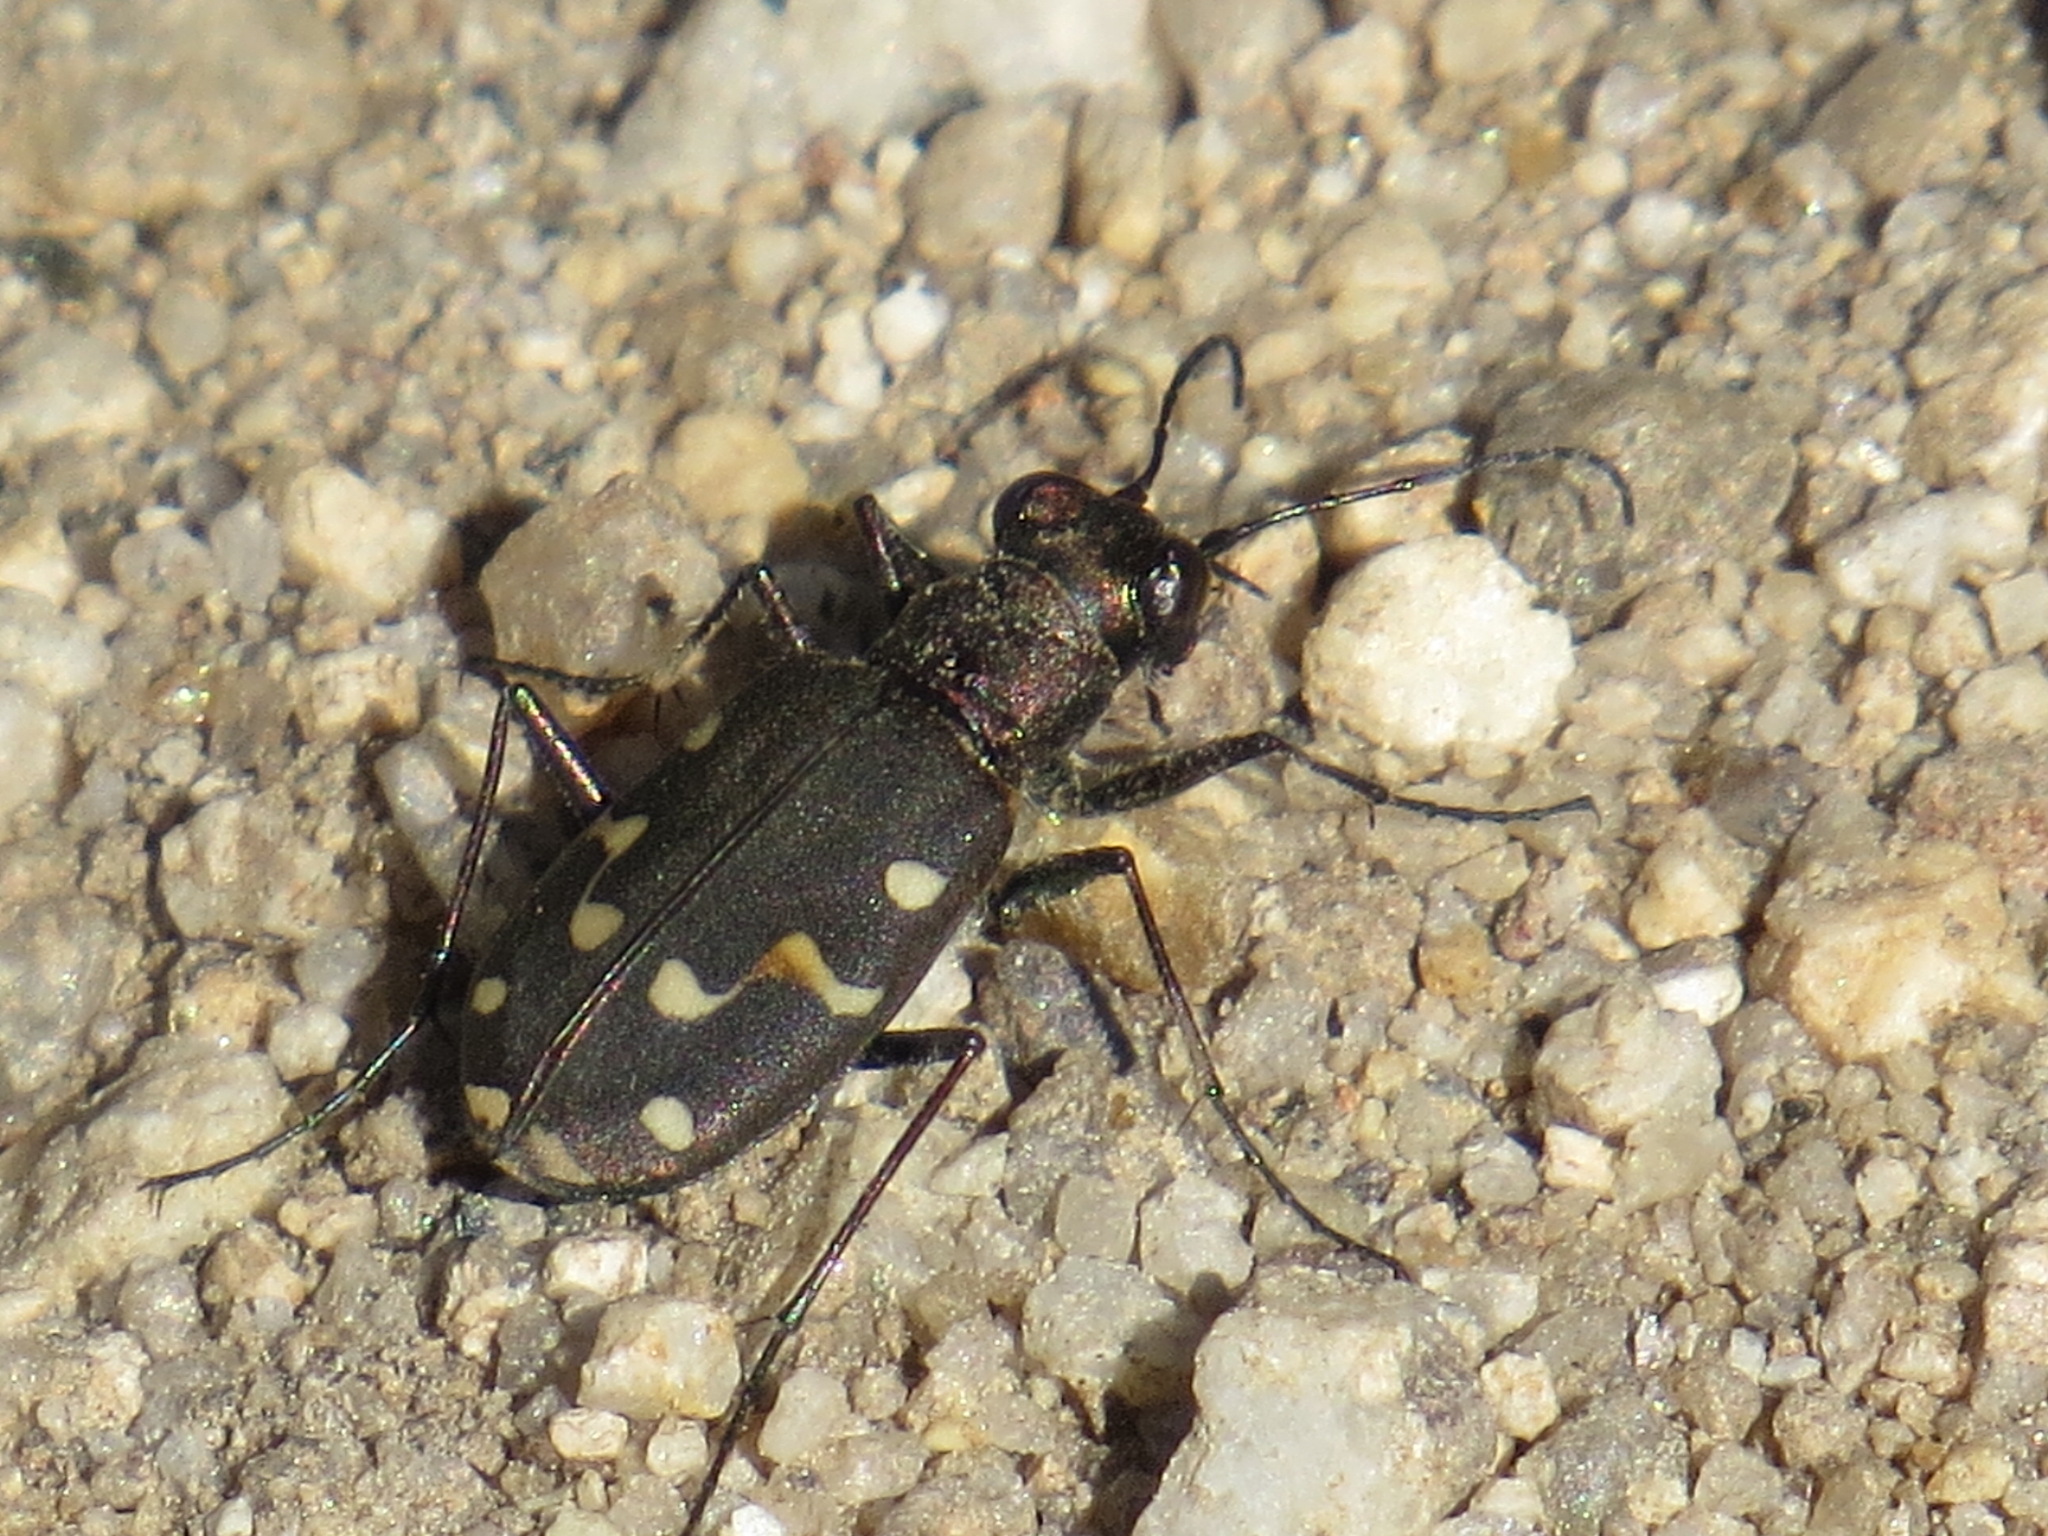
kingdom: Animalia
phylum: Arthropoda
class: Insecta
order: Coleoptera
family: Carabidae
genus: Cicindela
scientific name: Cicindela oregona
